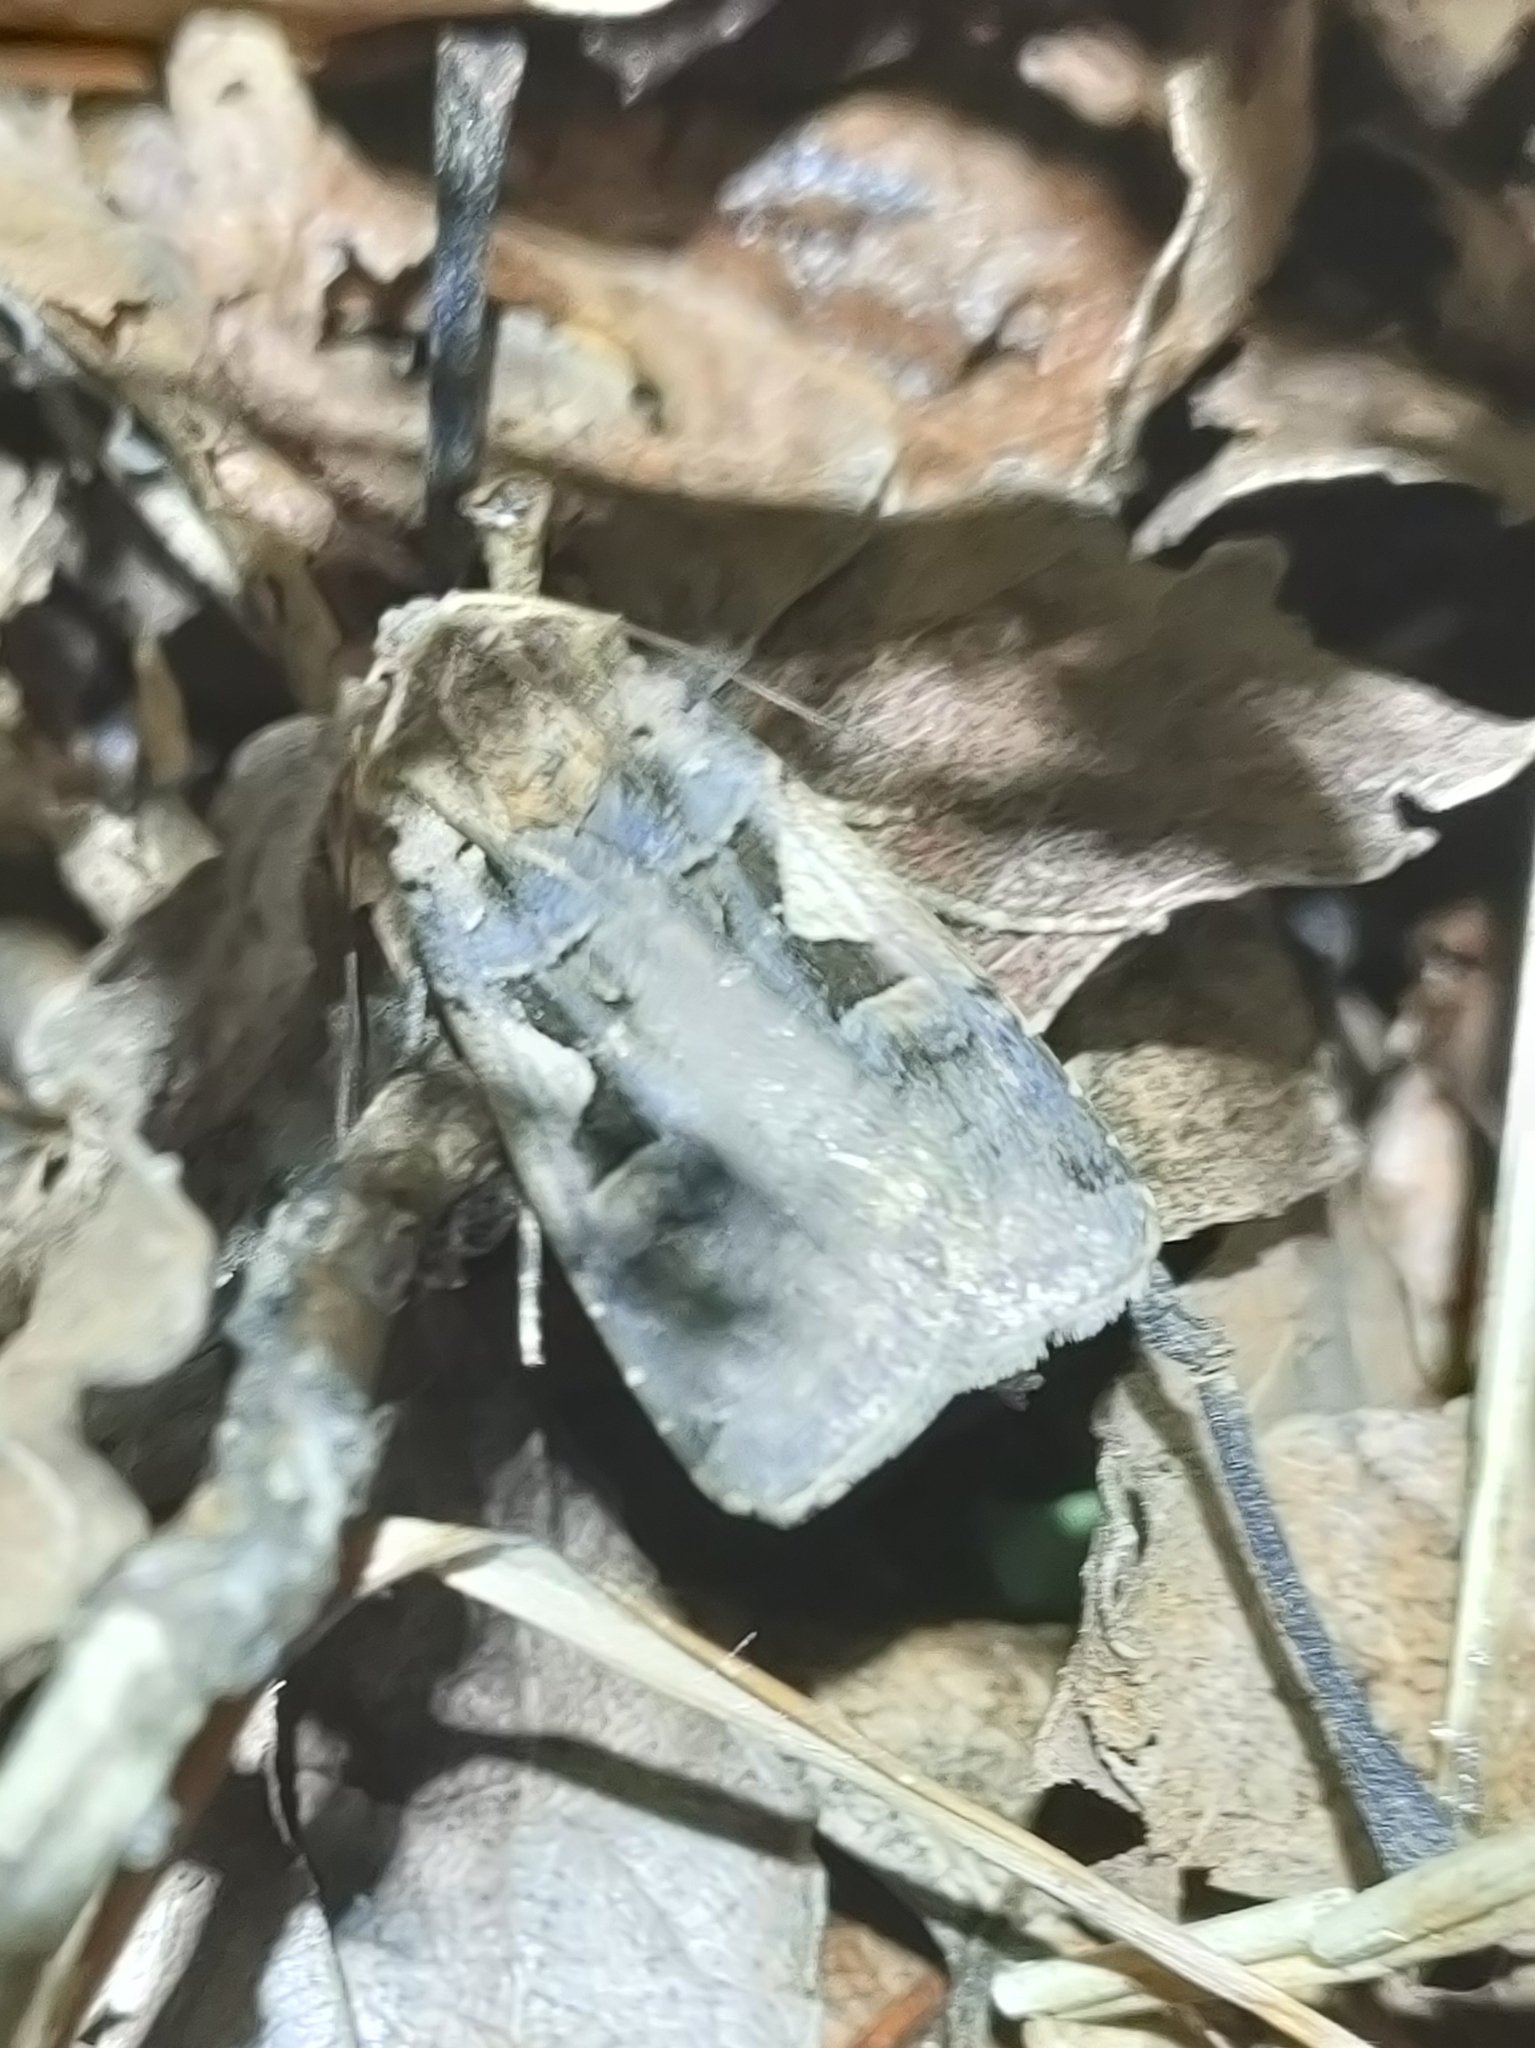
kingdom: Animalia
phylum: Arthropoda
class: Insecta
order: Lepidoptera
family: Noctuidae
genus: Xestia
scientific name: Xestia c-nigrum
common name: Setaceous hebrew character
